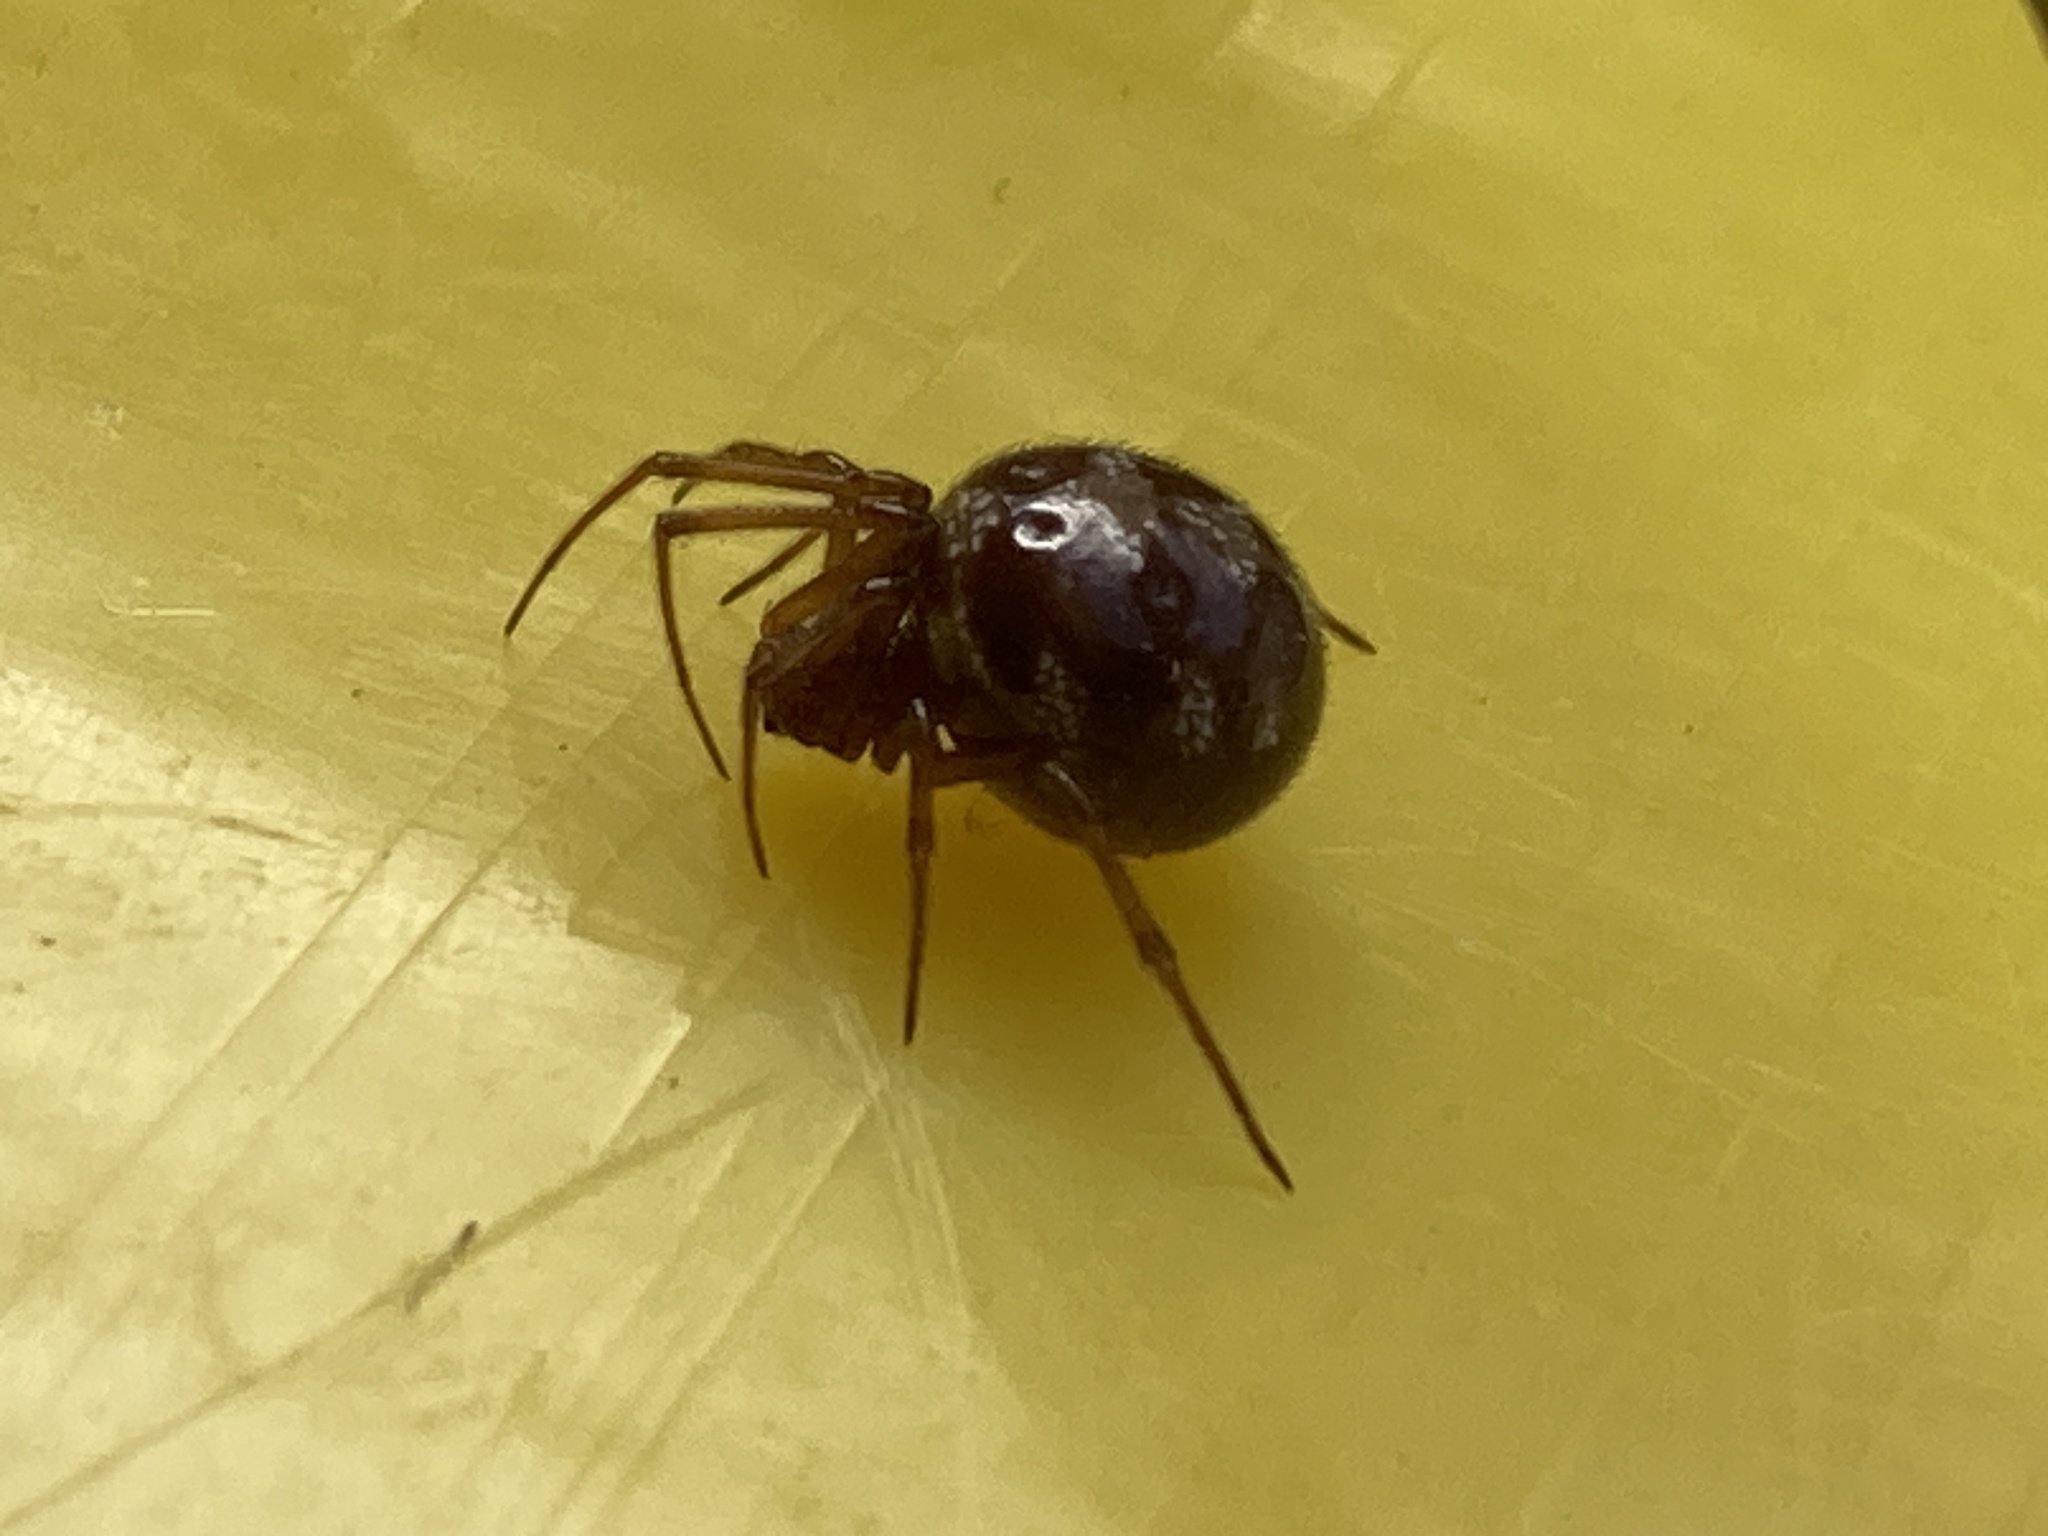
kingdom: Animalia
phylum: Arthropoda
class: Arachnida
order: Araneae
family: Theridiidae
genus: Steatoda
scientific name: Steatoda triangulosa
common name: Triangulate bud spider
